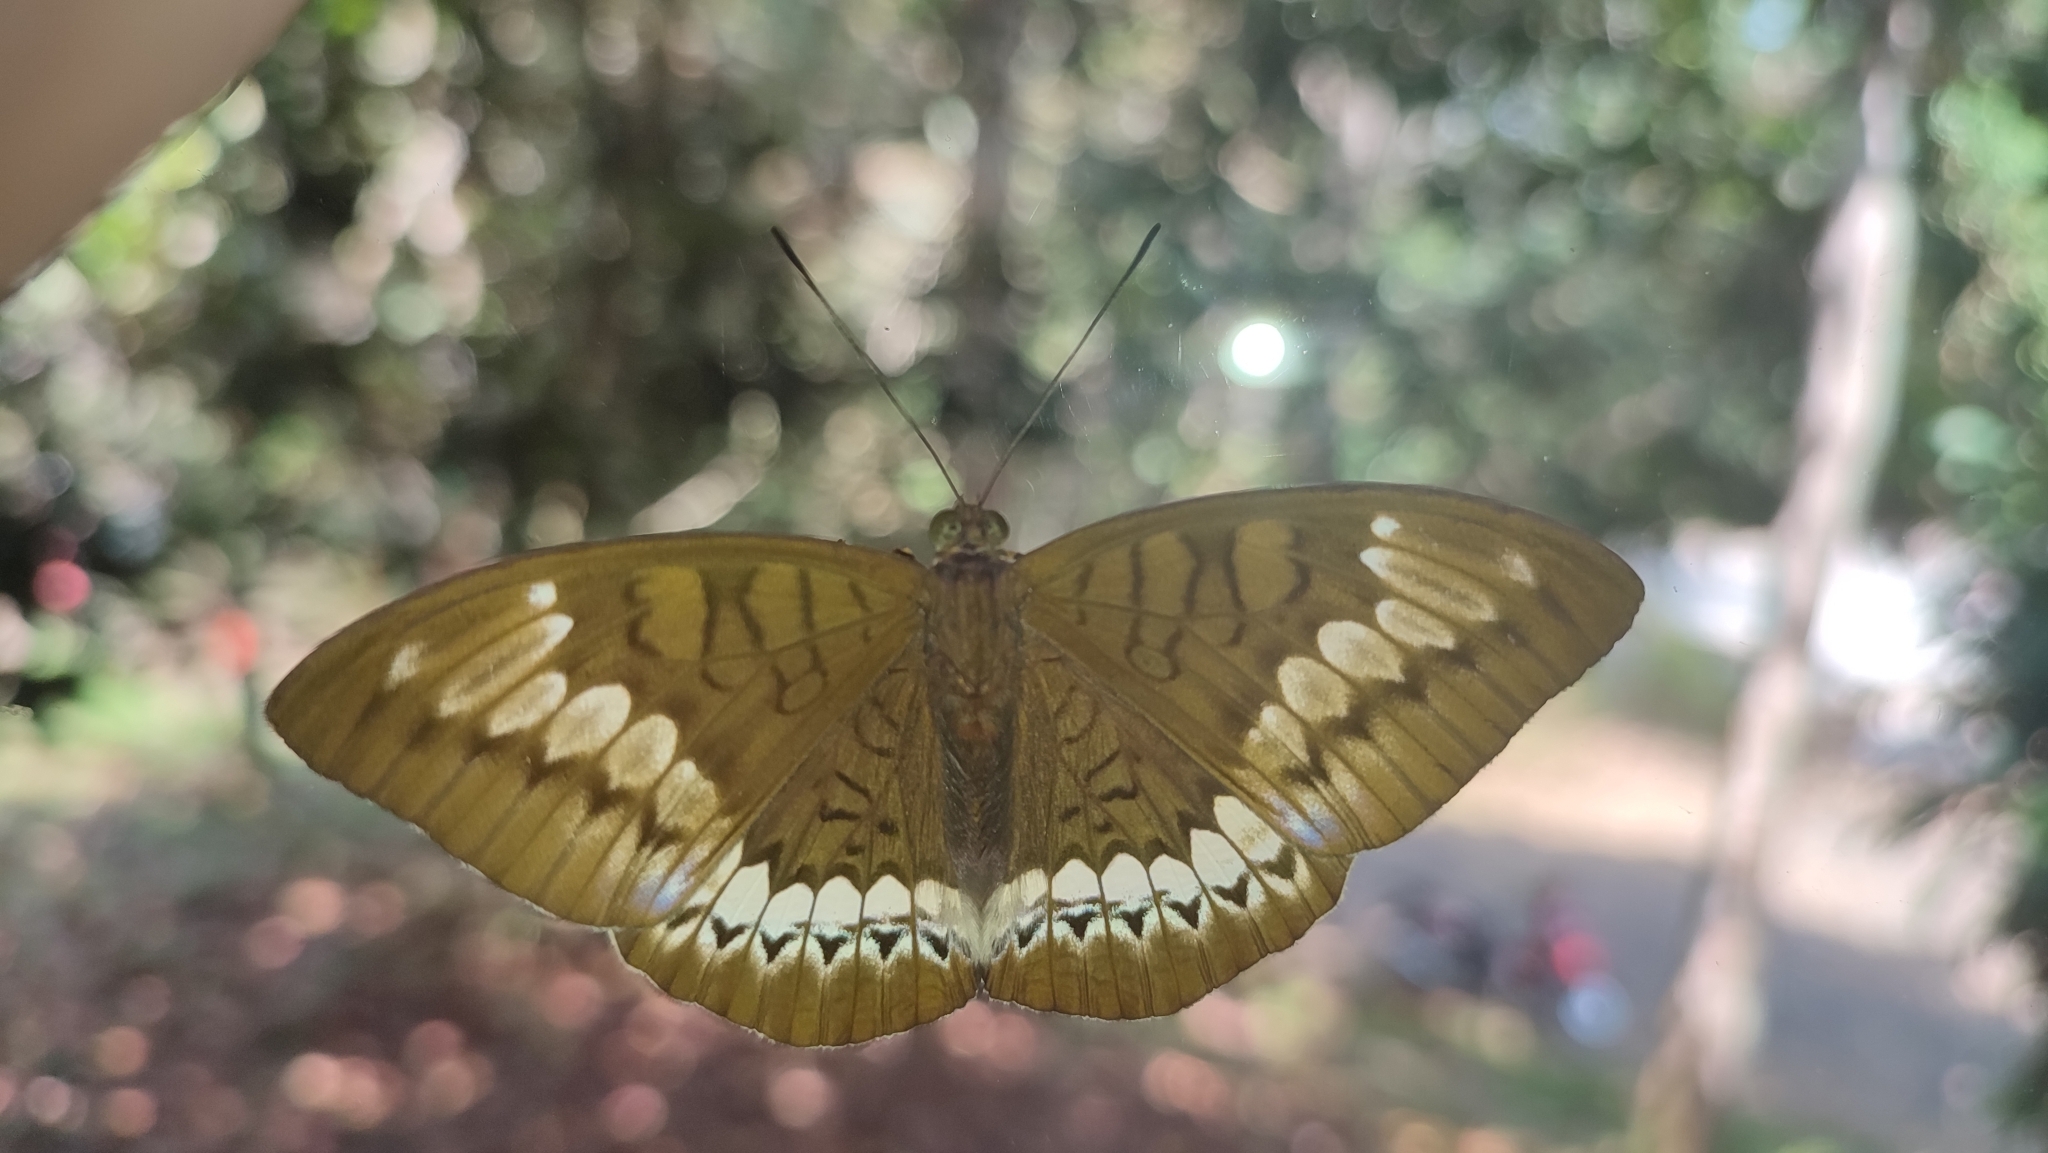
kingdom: Animalia
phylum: Arthropoda
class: Insecta
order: Lepidoptera
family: Nymphalidae
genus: Tanaecia
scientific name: Tanaecia trigerta
